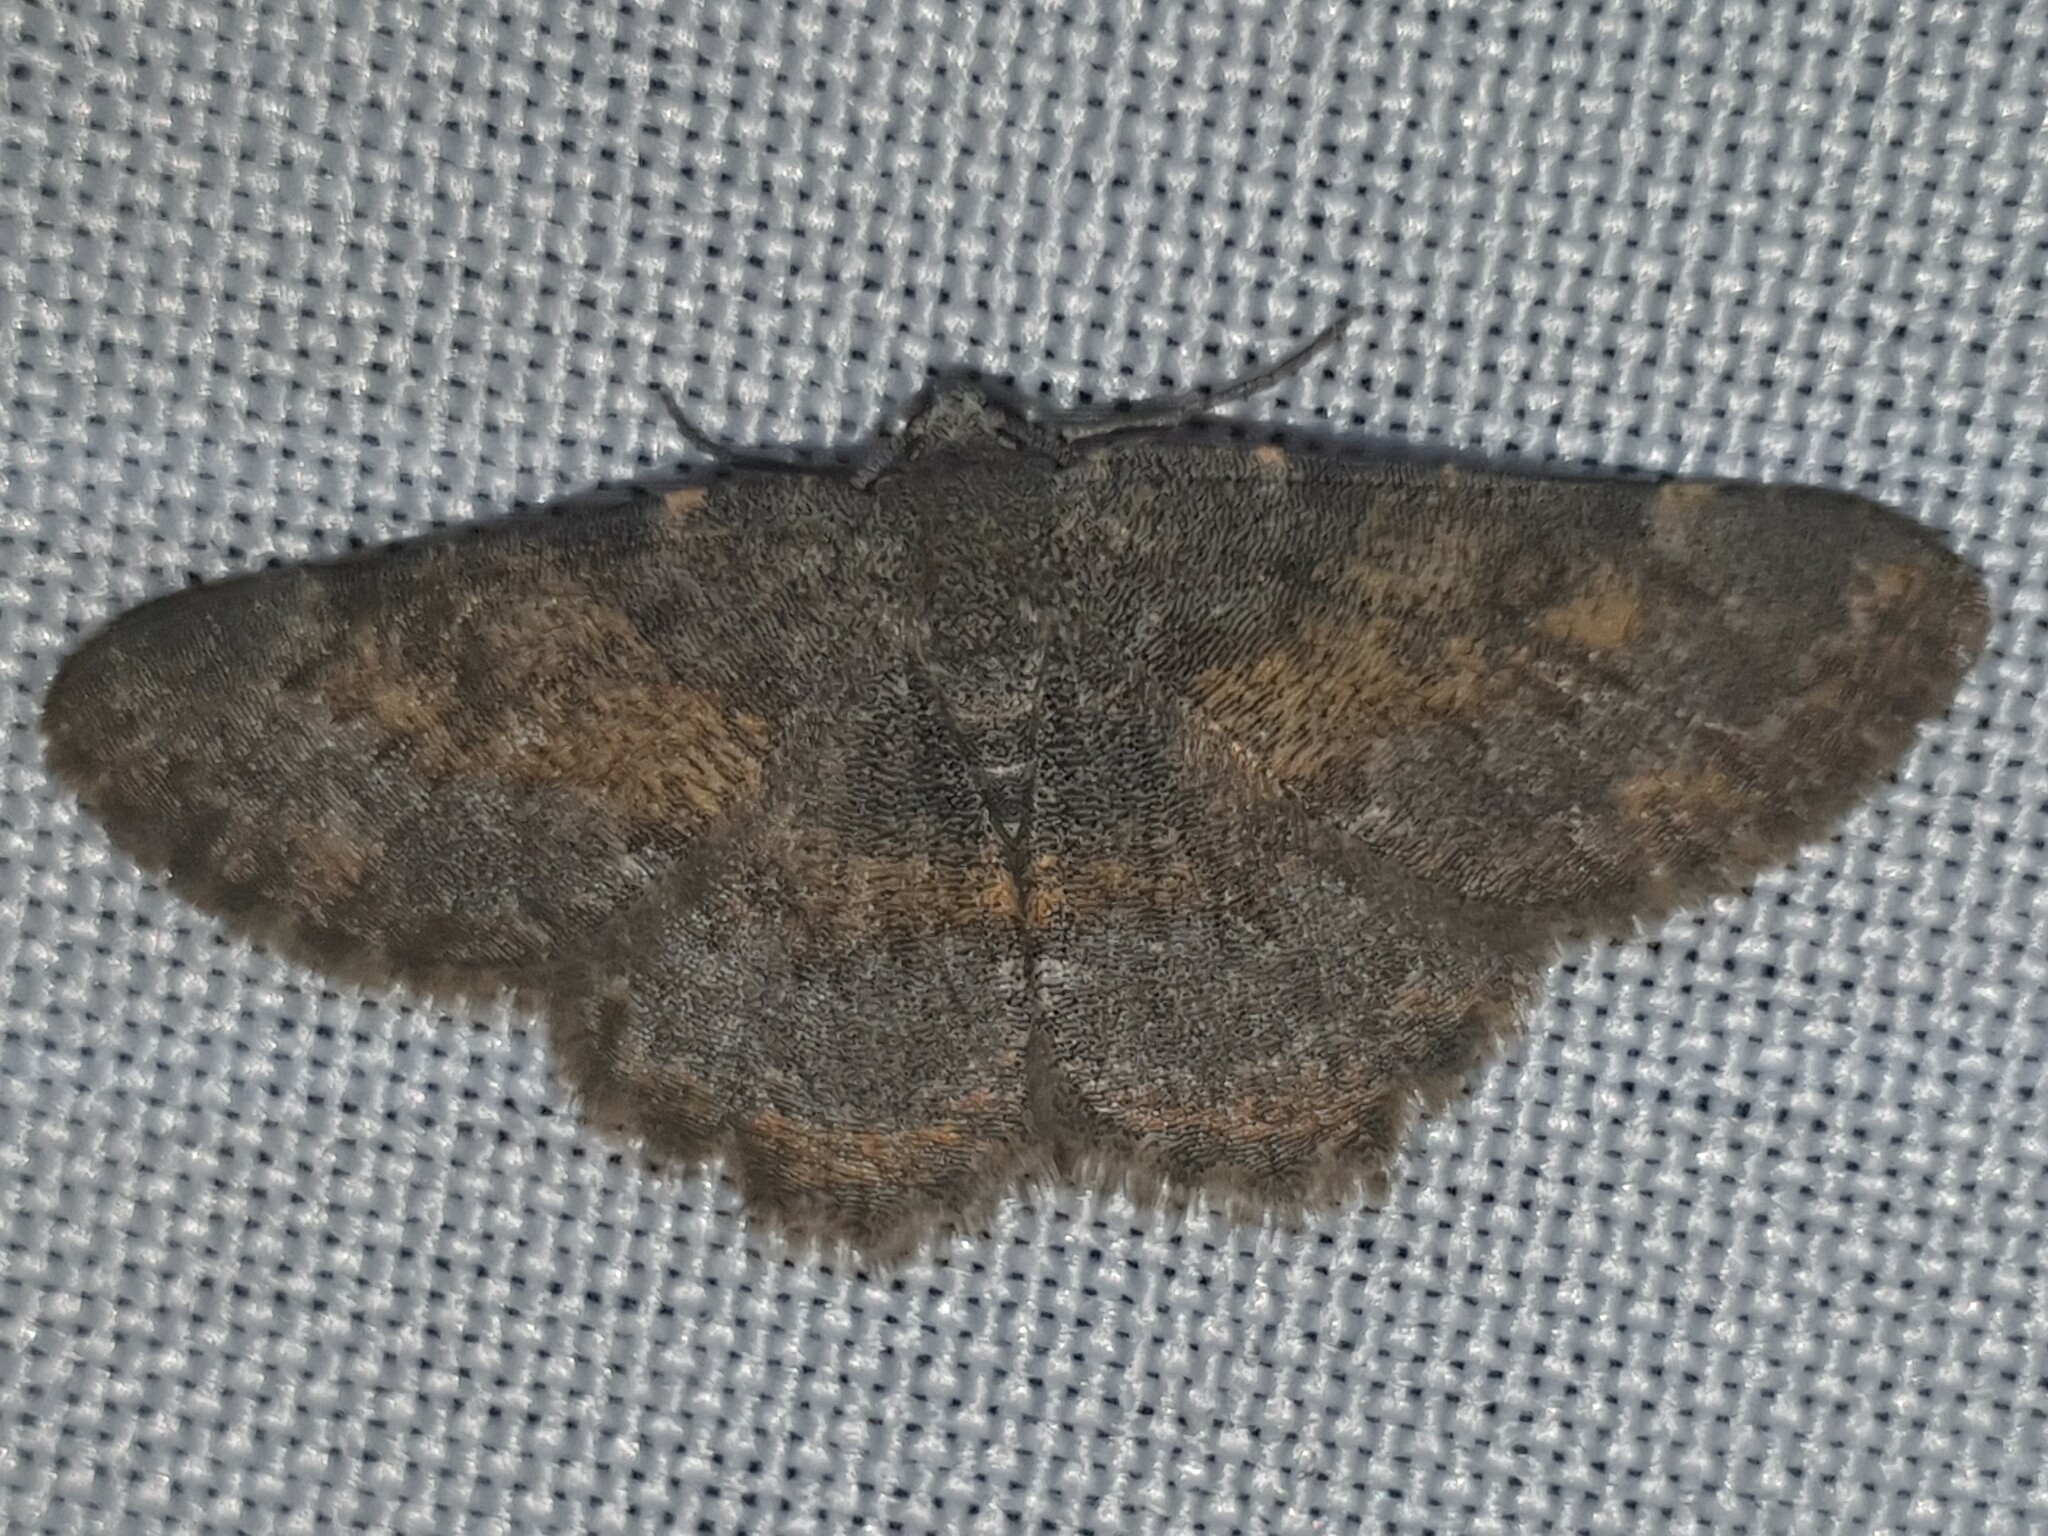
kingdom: Animalia
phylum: Arthropoda
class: Insecta
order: Lepidoptera
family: Geometridae
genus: Charissa
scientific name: Charissa mucidaria
